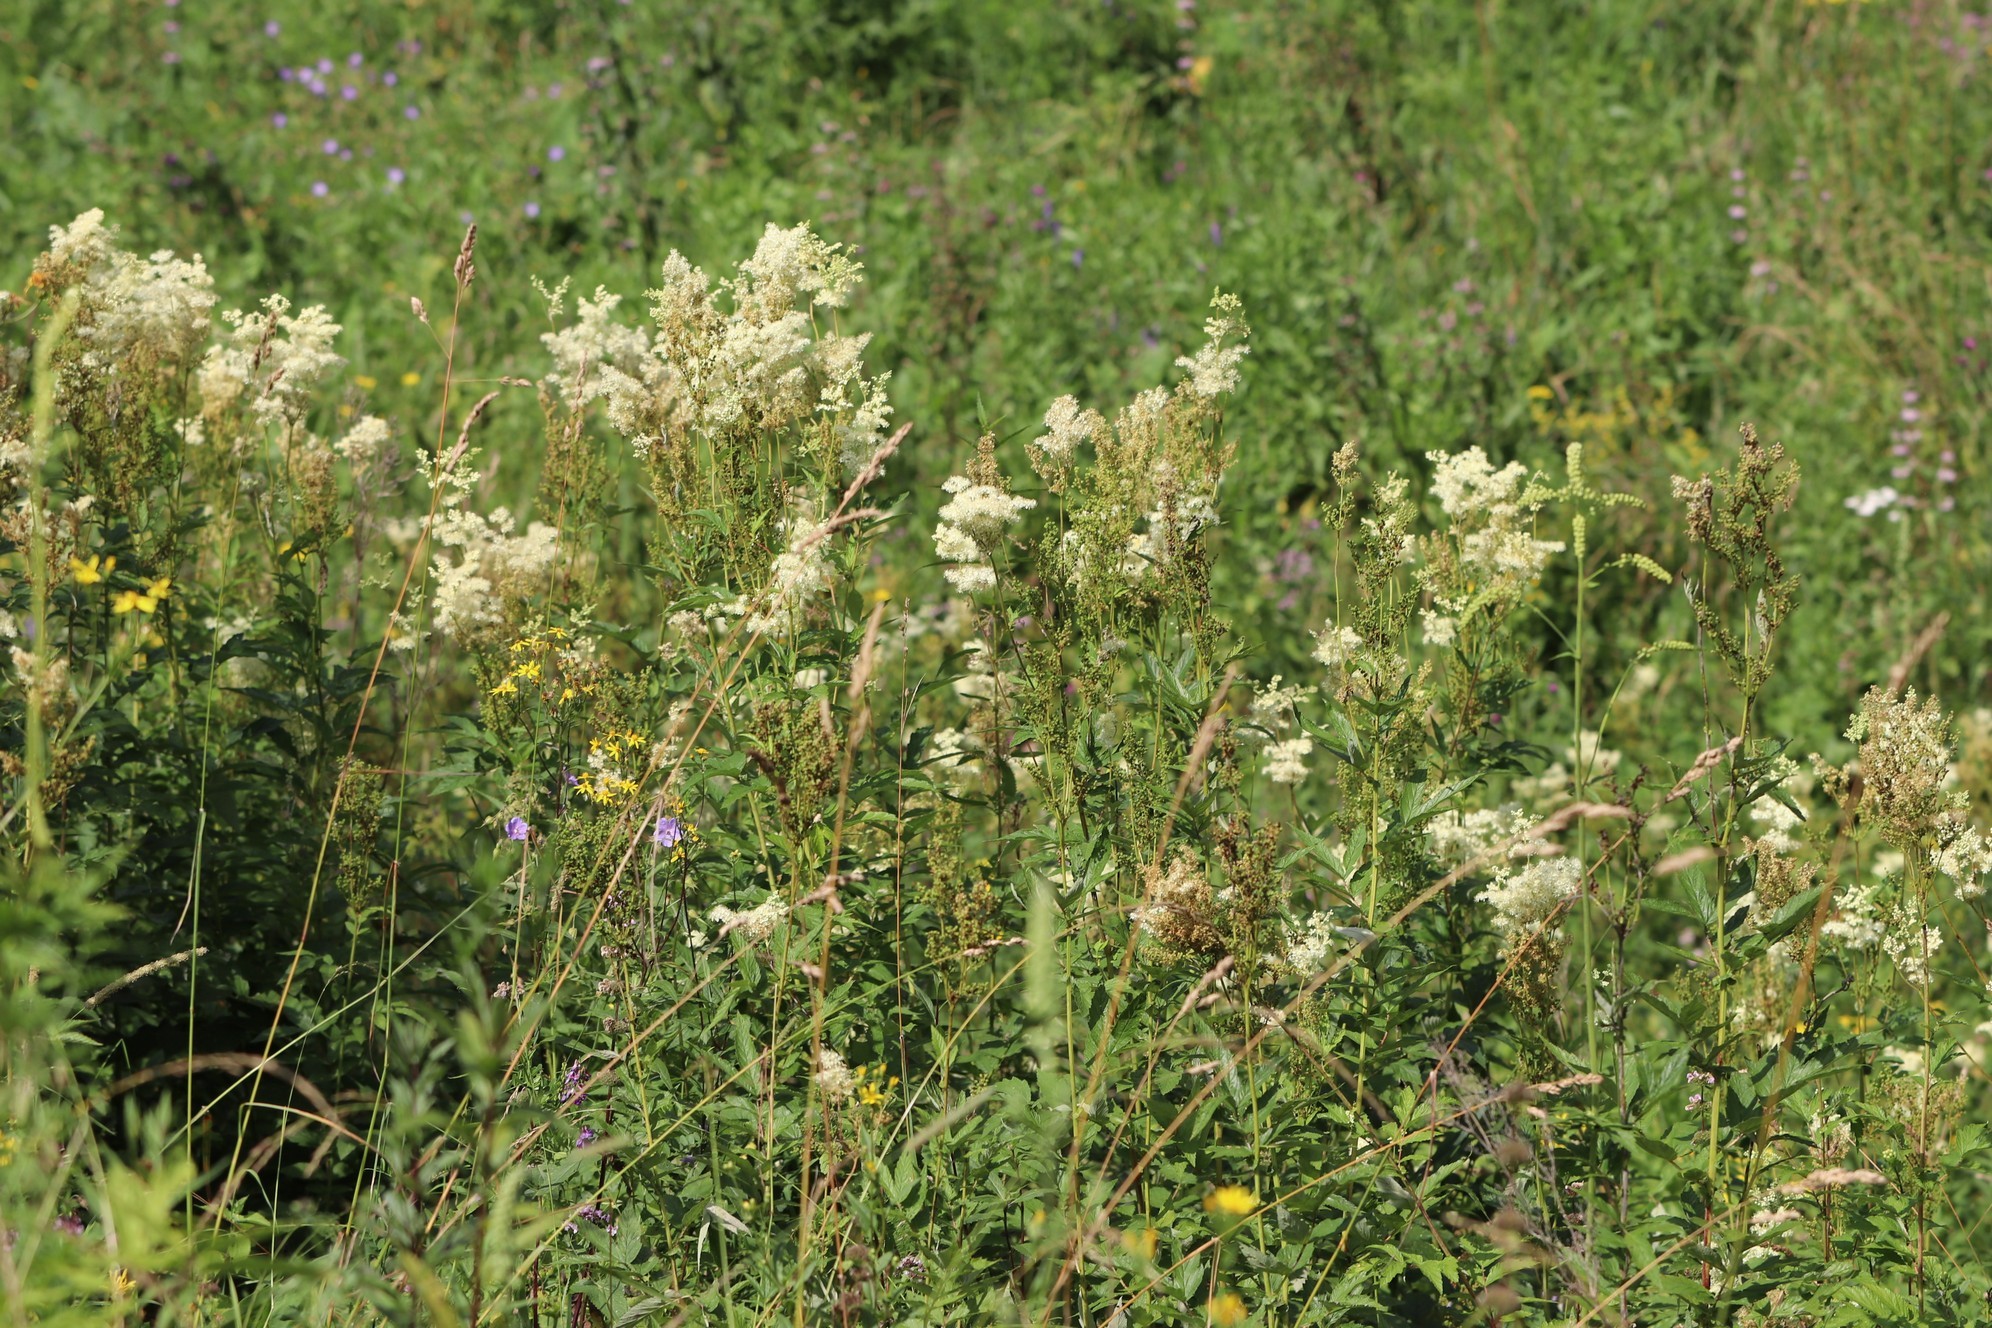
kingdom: Plantae
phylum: Tracheophyta
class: Magnoliopsida
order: Rosales
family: Rosaceae
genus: Filipendula
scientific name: Filipendula ulmaria
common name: Meadowsweet
